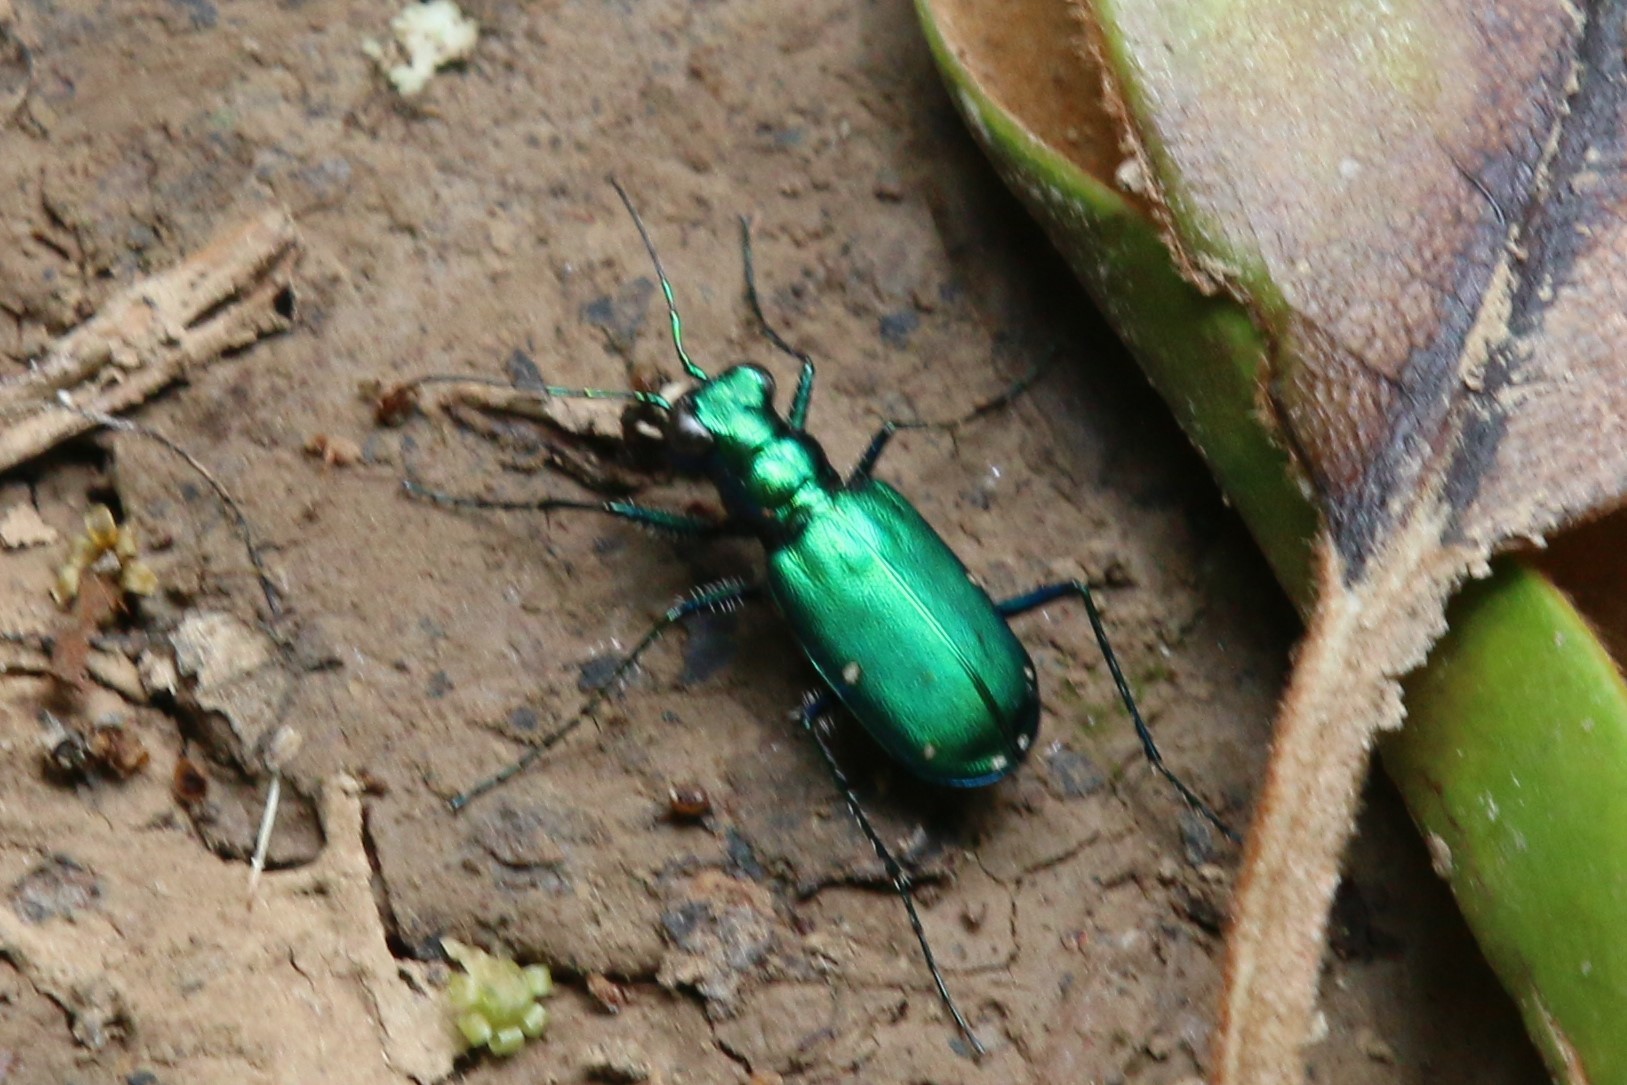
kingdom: Animalia
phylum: Arthropoda
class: Insecta
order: Coleoptera
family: Carabidae
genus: Cicindela
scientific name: Cicindela sexguttata
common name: Six-spotted tiger beetle
